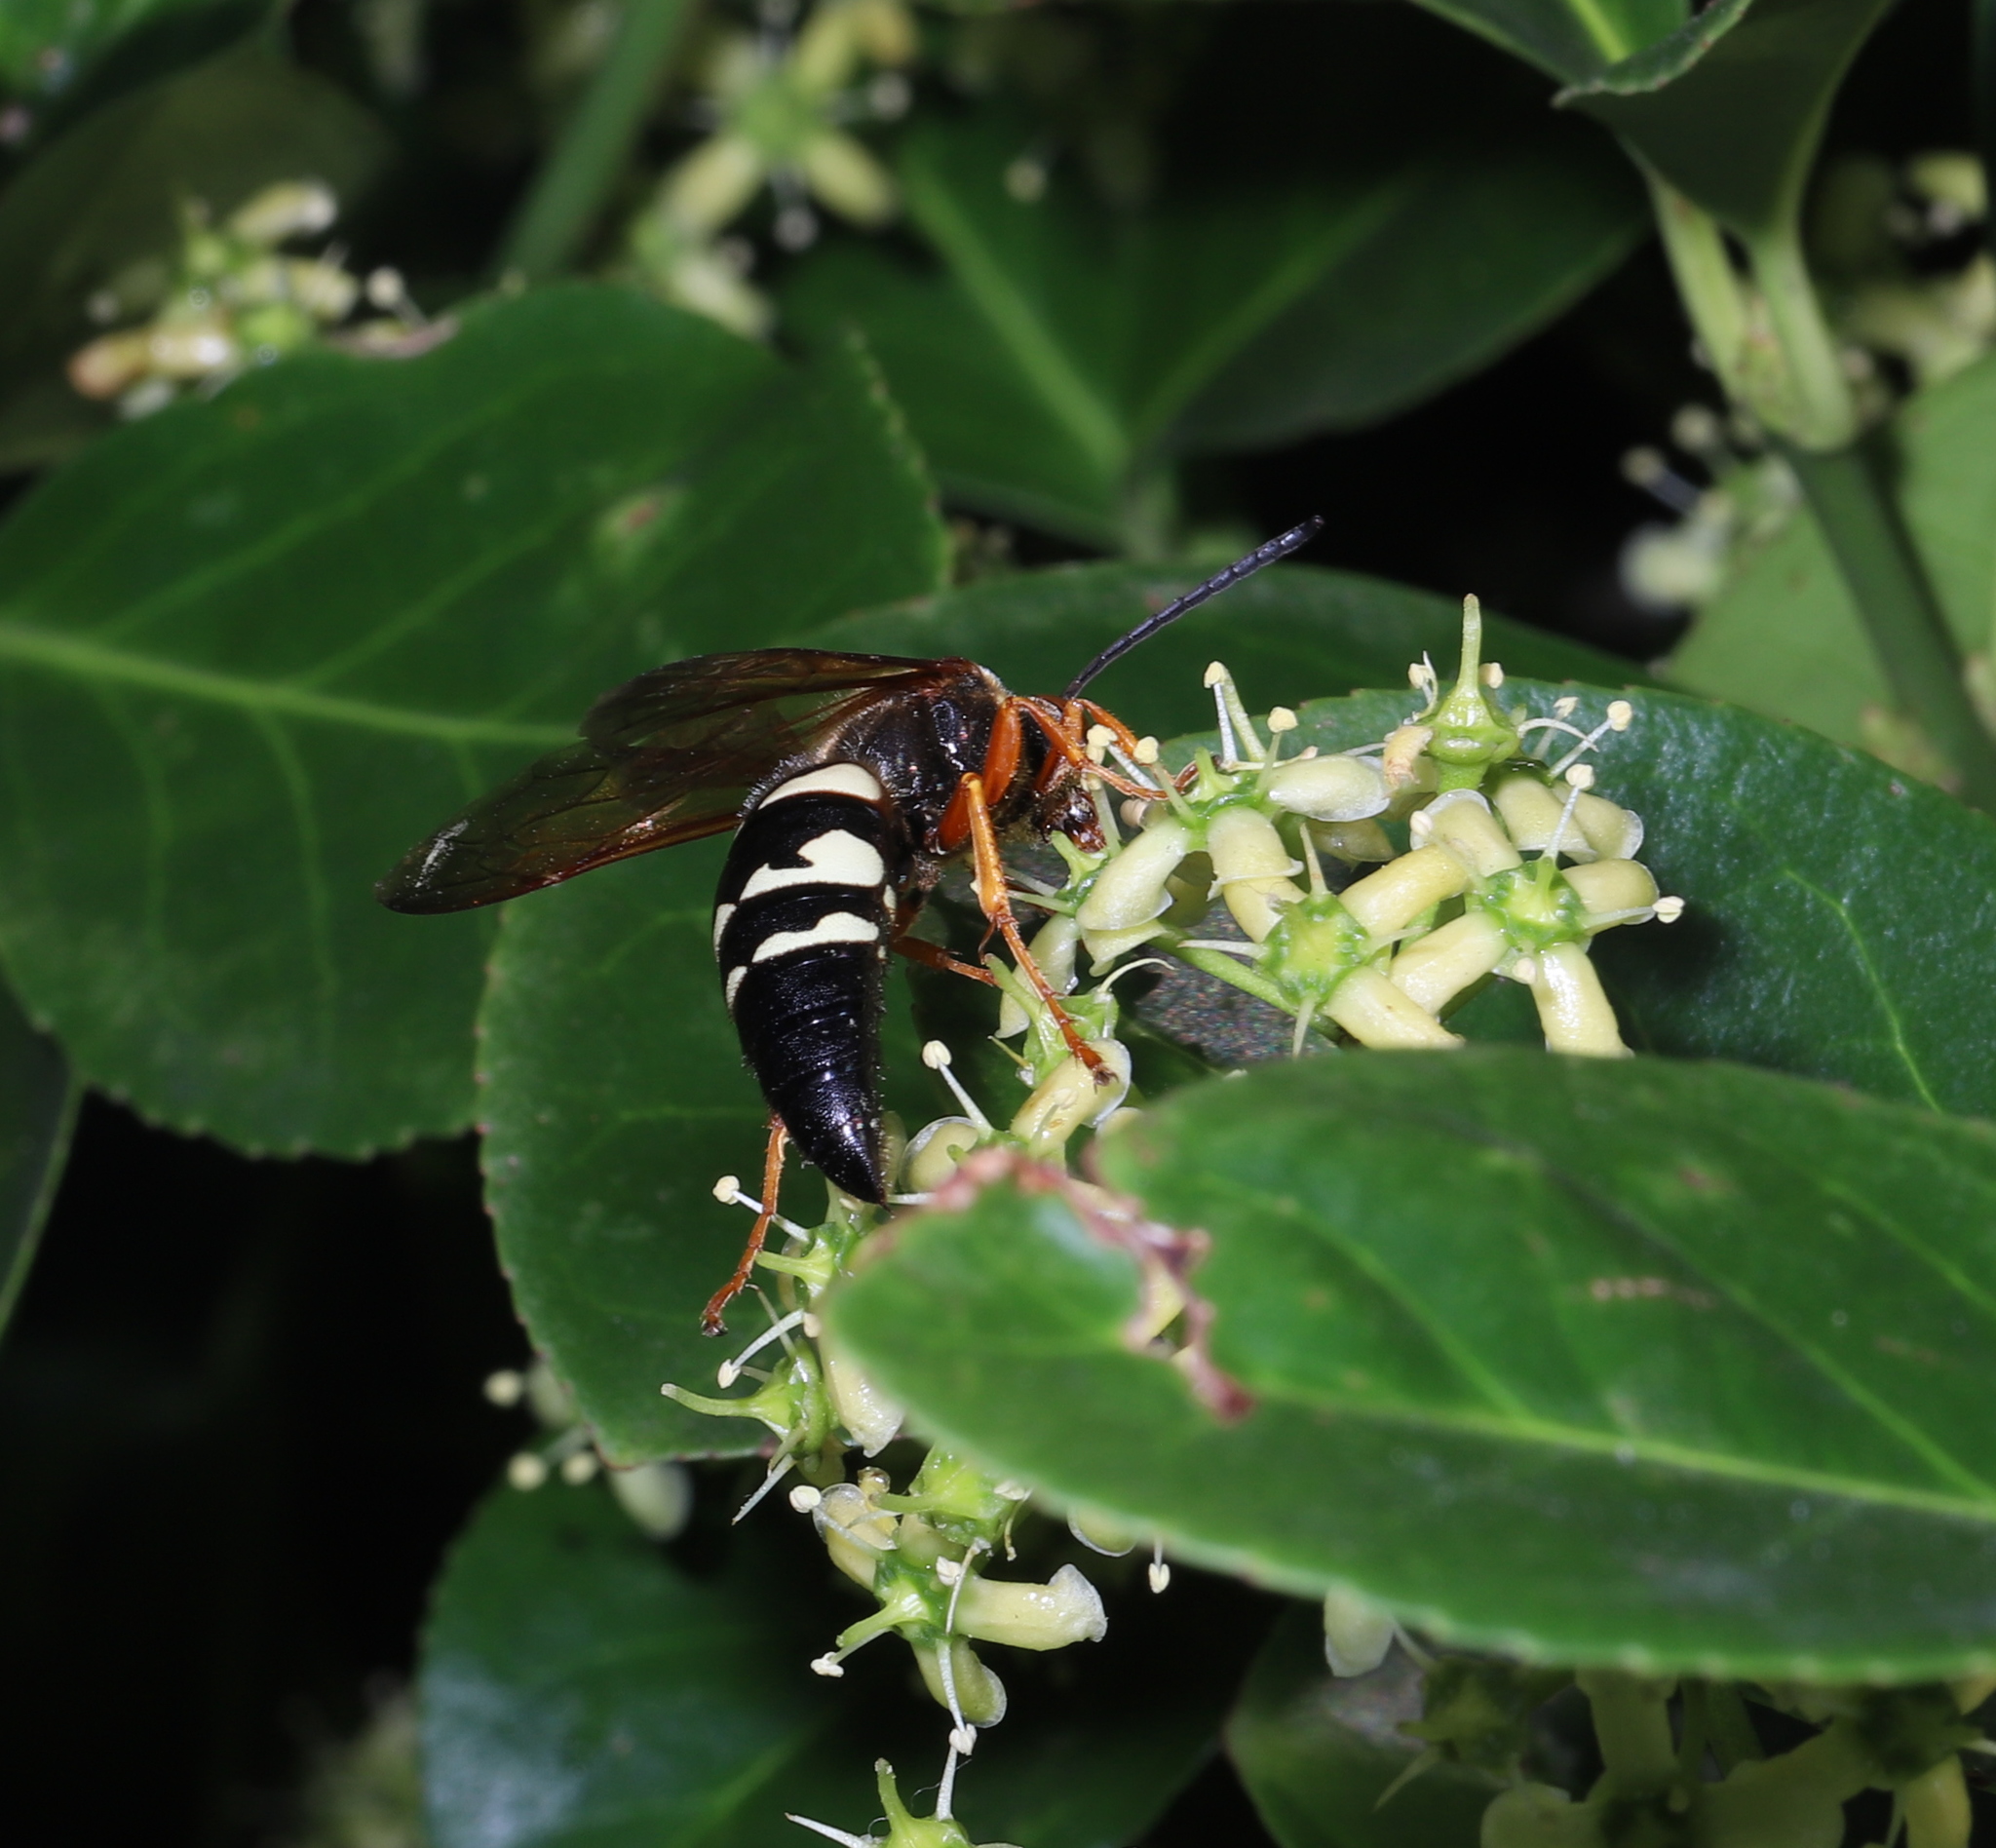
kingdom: Animalia
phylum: Arthropoda
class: Insecta
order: Hymenoptera
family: Crabronidae
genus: Sphecius
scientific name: Sphecius speciosus
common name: Cicada killer
